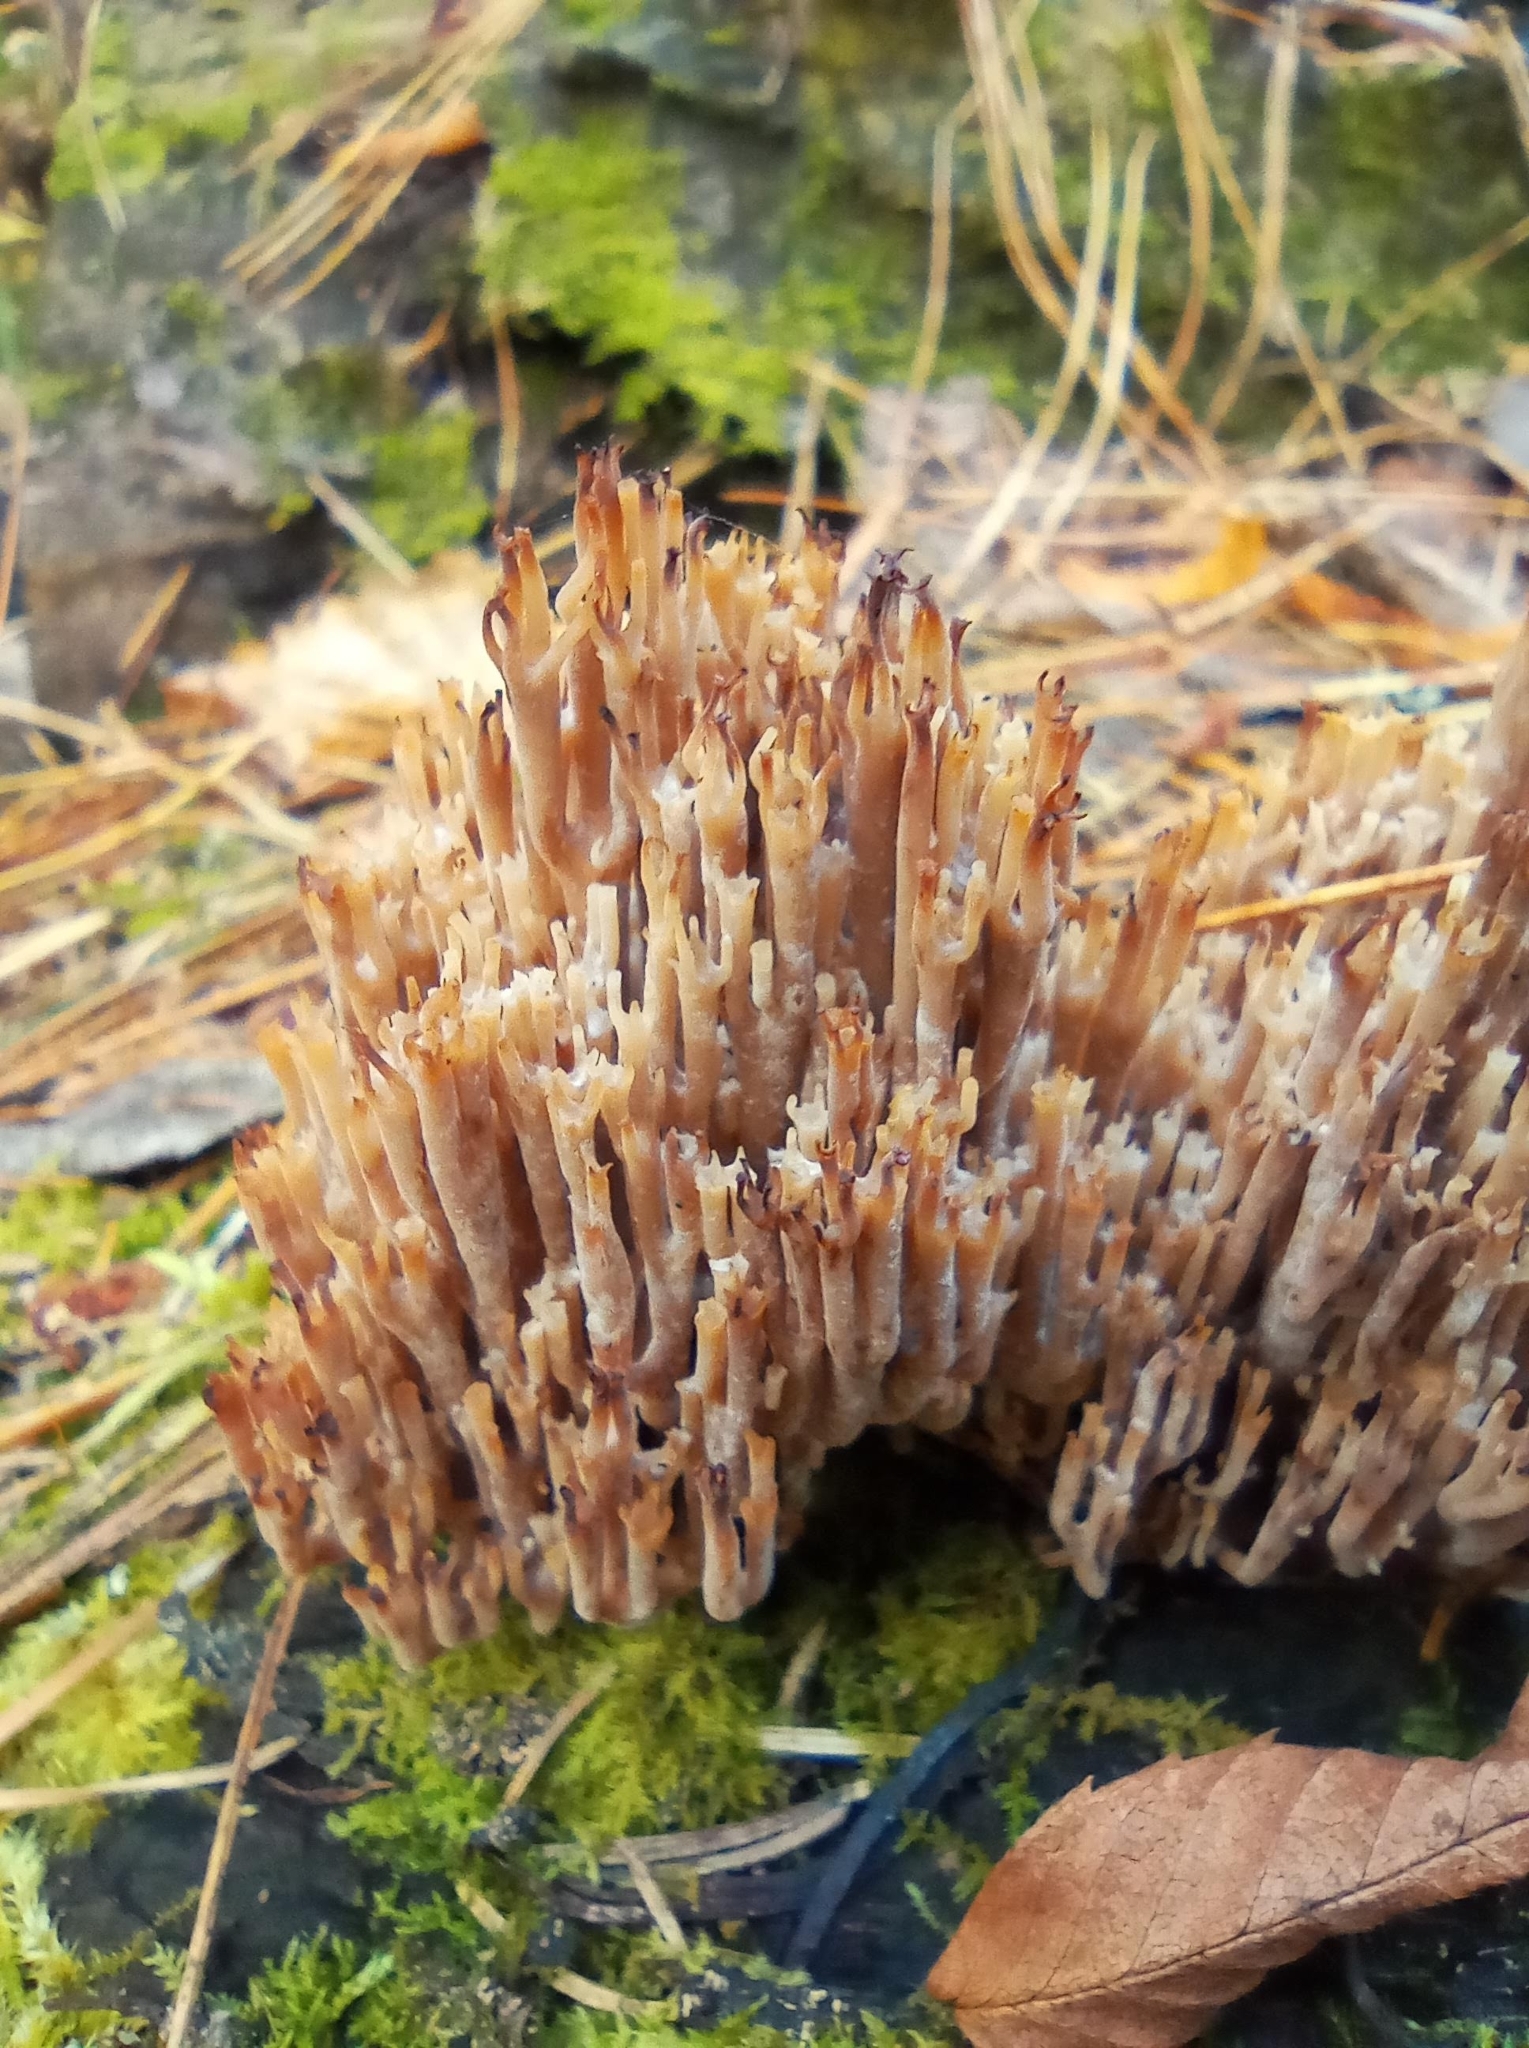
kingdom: Fungi
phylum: Basidiomycota
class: Agaricomycetes
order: Russulales
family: Auriscalpiaceae
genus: Artomyces
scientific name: Artomyces pyxidatus
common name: Crown-tipped coral fungus
